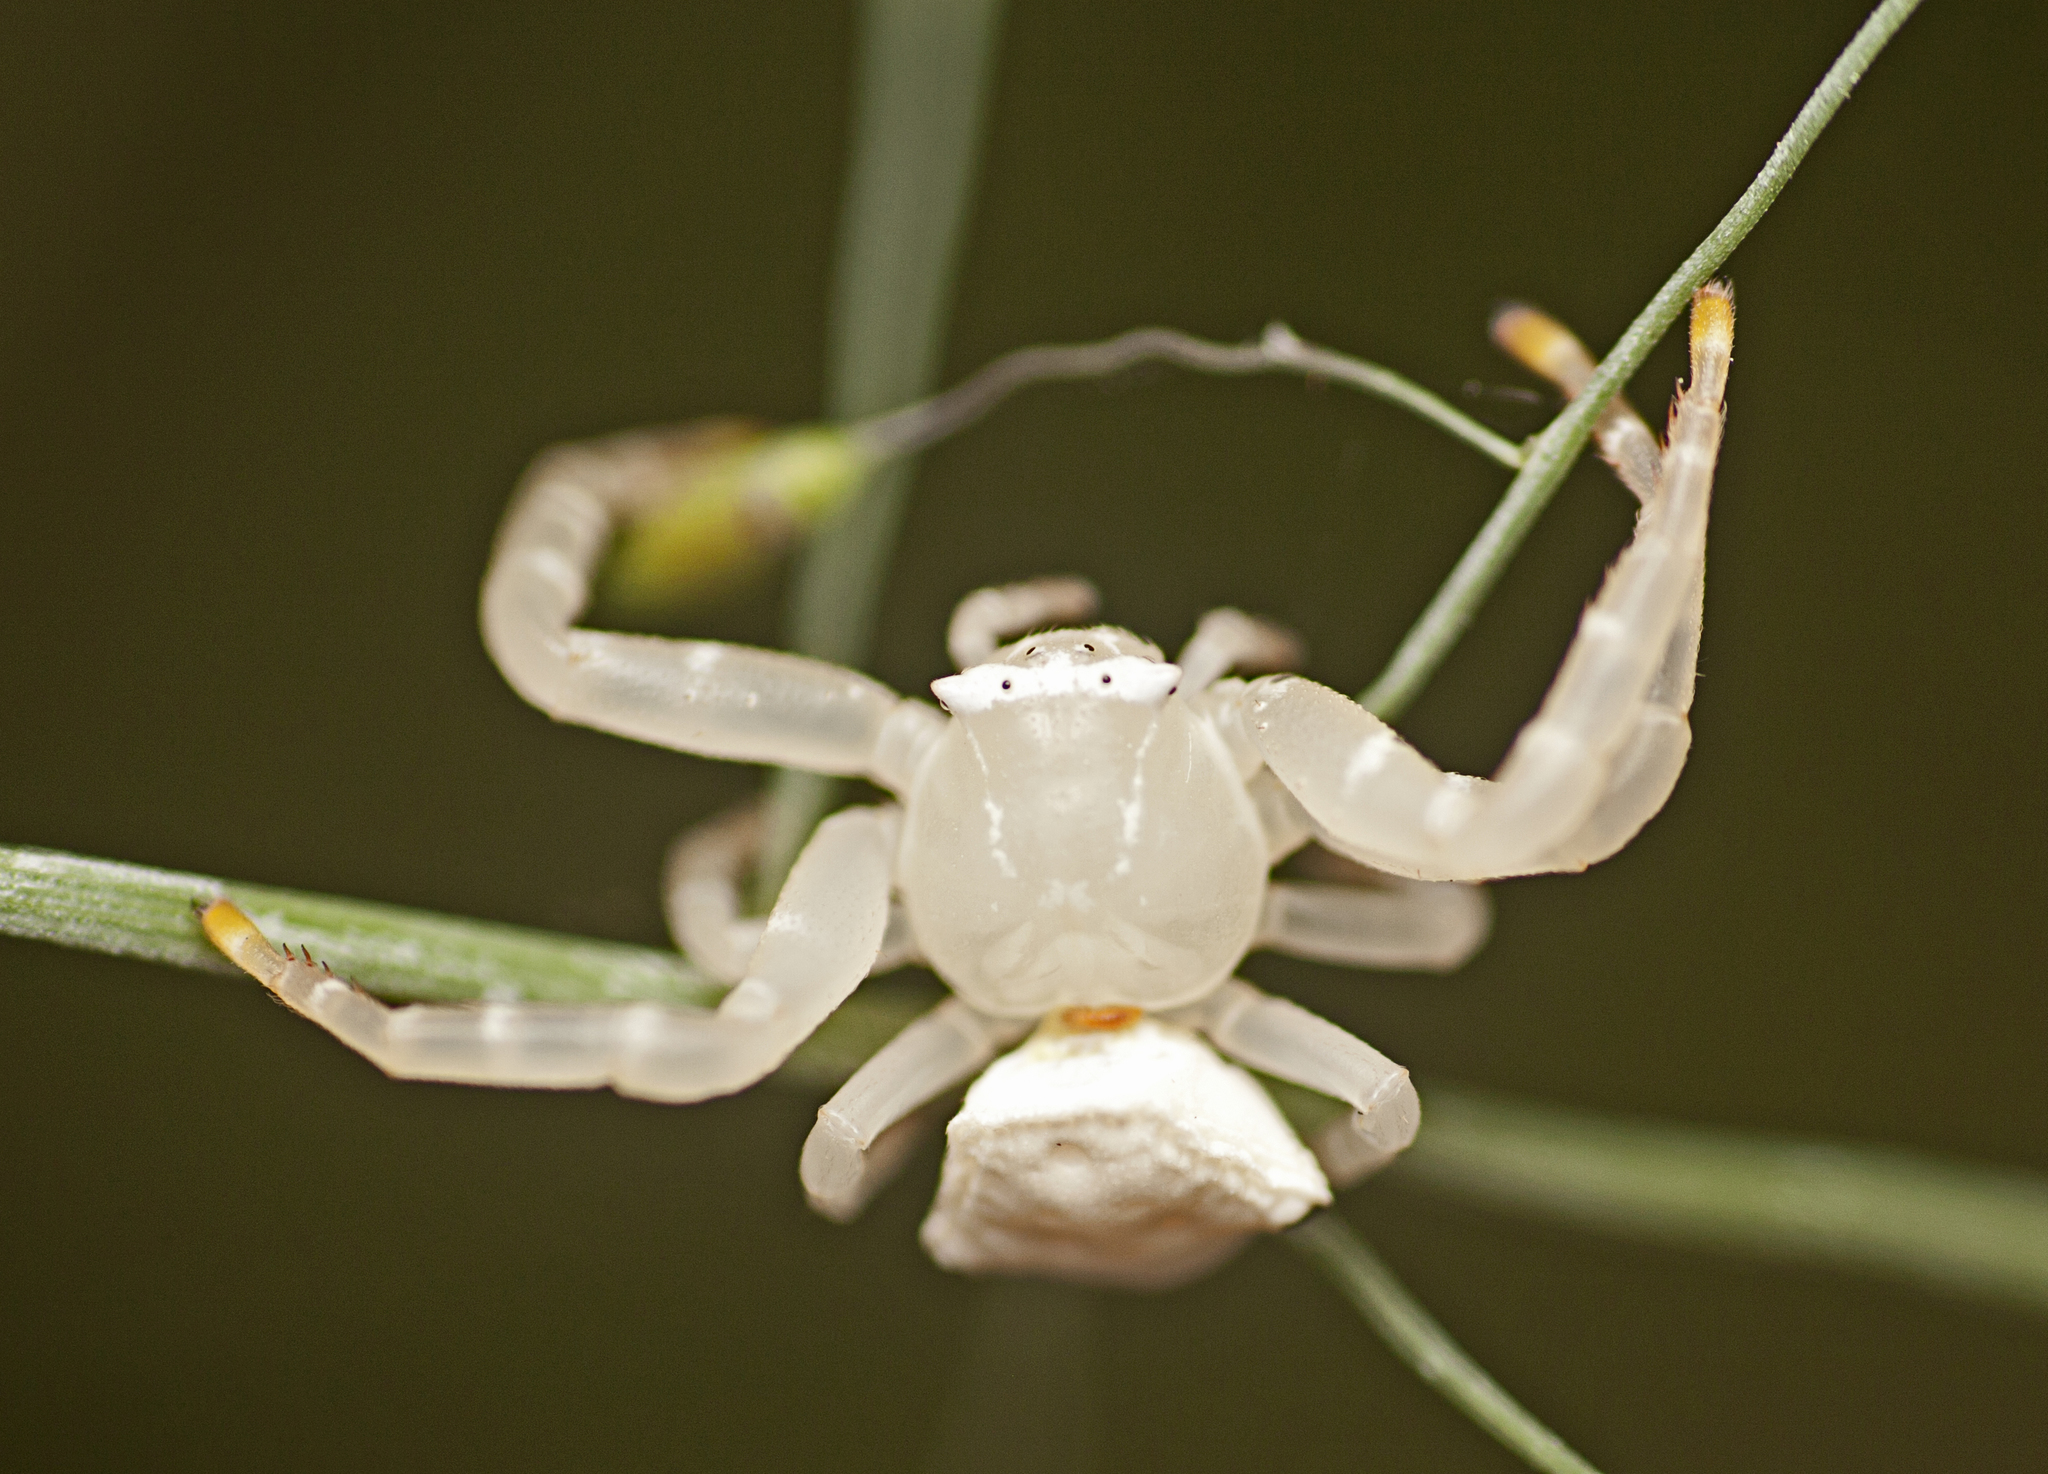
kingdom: Animalia
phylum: Arthropoda
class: Arachnida
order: Araneae
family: Thomisidae
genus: Thomisus
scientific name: Thomisus spectabilis
